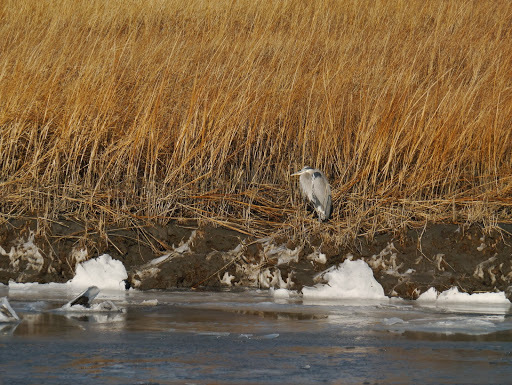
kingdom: Animalia
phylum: Chordata
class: Aves
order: Pelecaniformes
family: Ardeidae
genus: Ardea
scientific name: Ardea herodias
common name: Great blue heron
